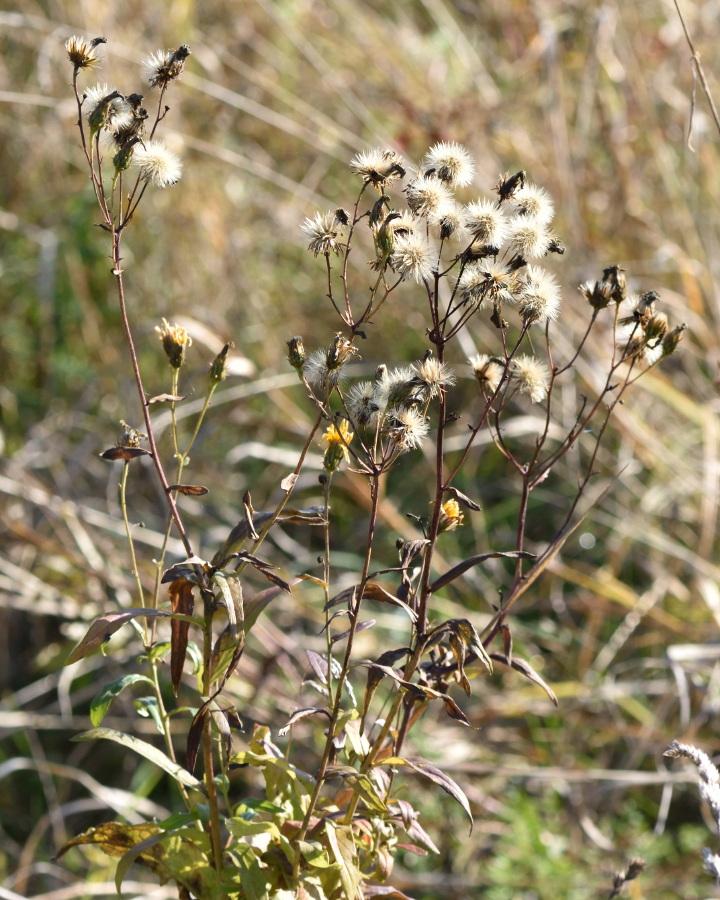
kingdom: Plantae
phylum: Tracheophyta
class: Magnoliopsida
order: Asterales
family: Asteraceae
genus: Hieracium
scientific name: Hieracium umbellatum
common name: Northern hawkweed
